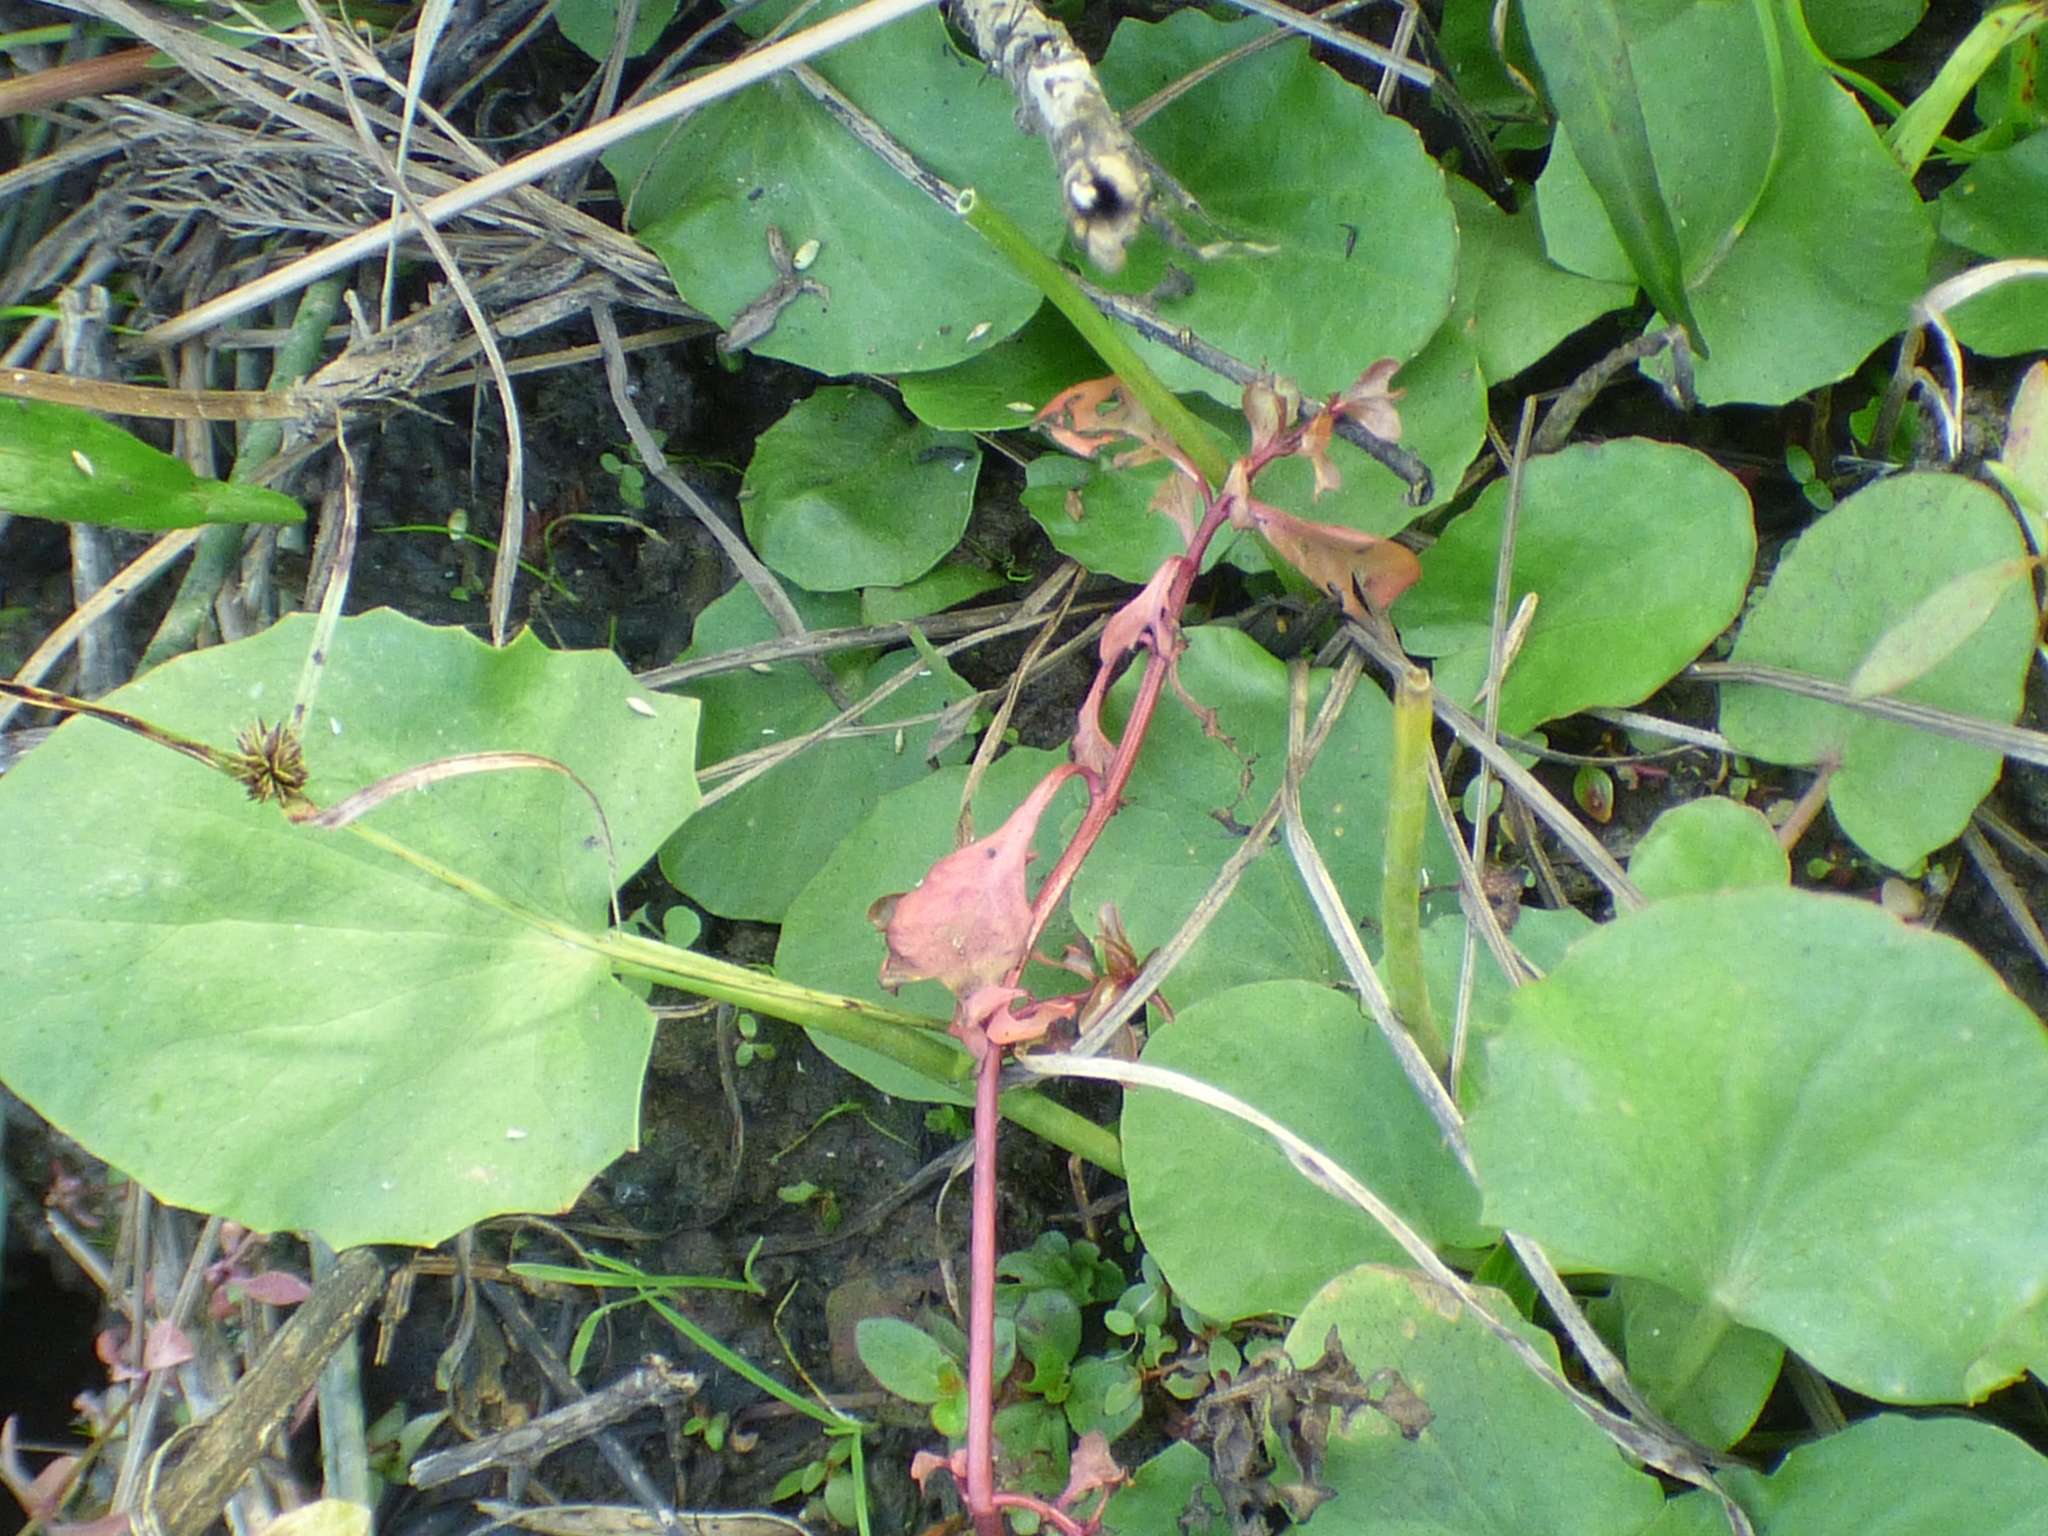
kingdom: Plantae
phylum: Tracheophyta
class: Magnoliopsida
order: Apiales
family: Apiaceae
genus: Centella
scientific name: Centella erecta
